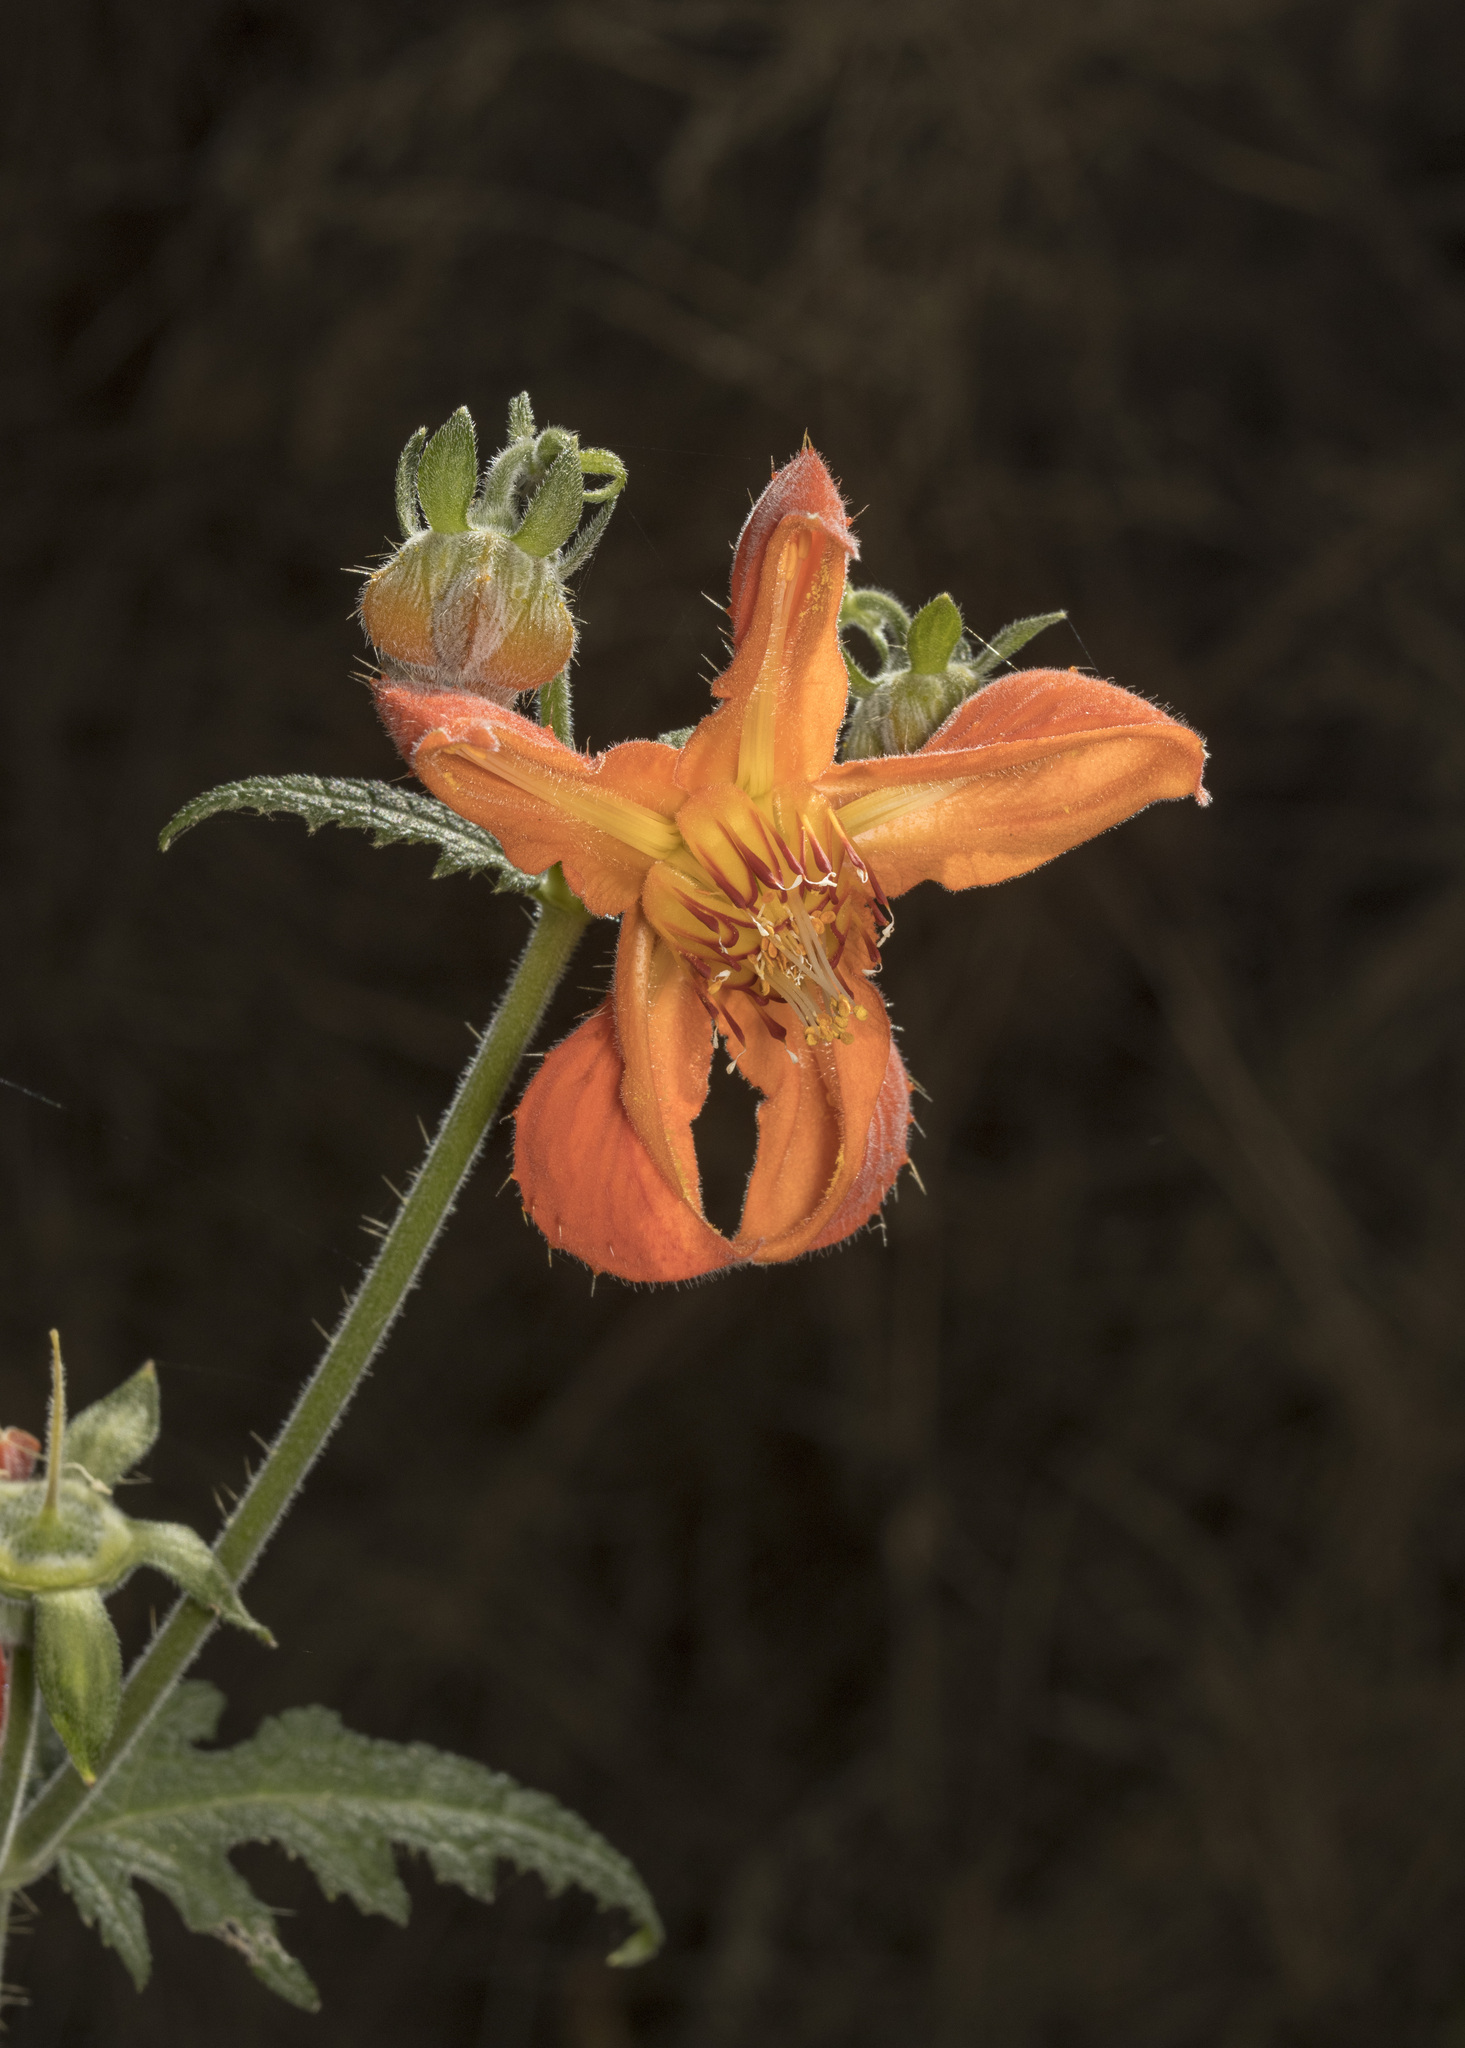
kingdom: Plantae
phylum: Tracheophyta
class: Magnoliopsida
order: Cornales
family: Loasaceae
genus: Loasa
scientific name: Loasa acanthifolia
